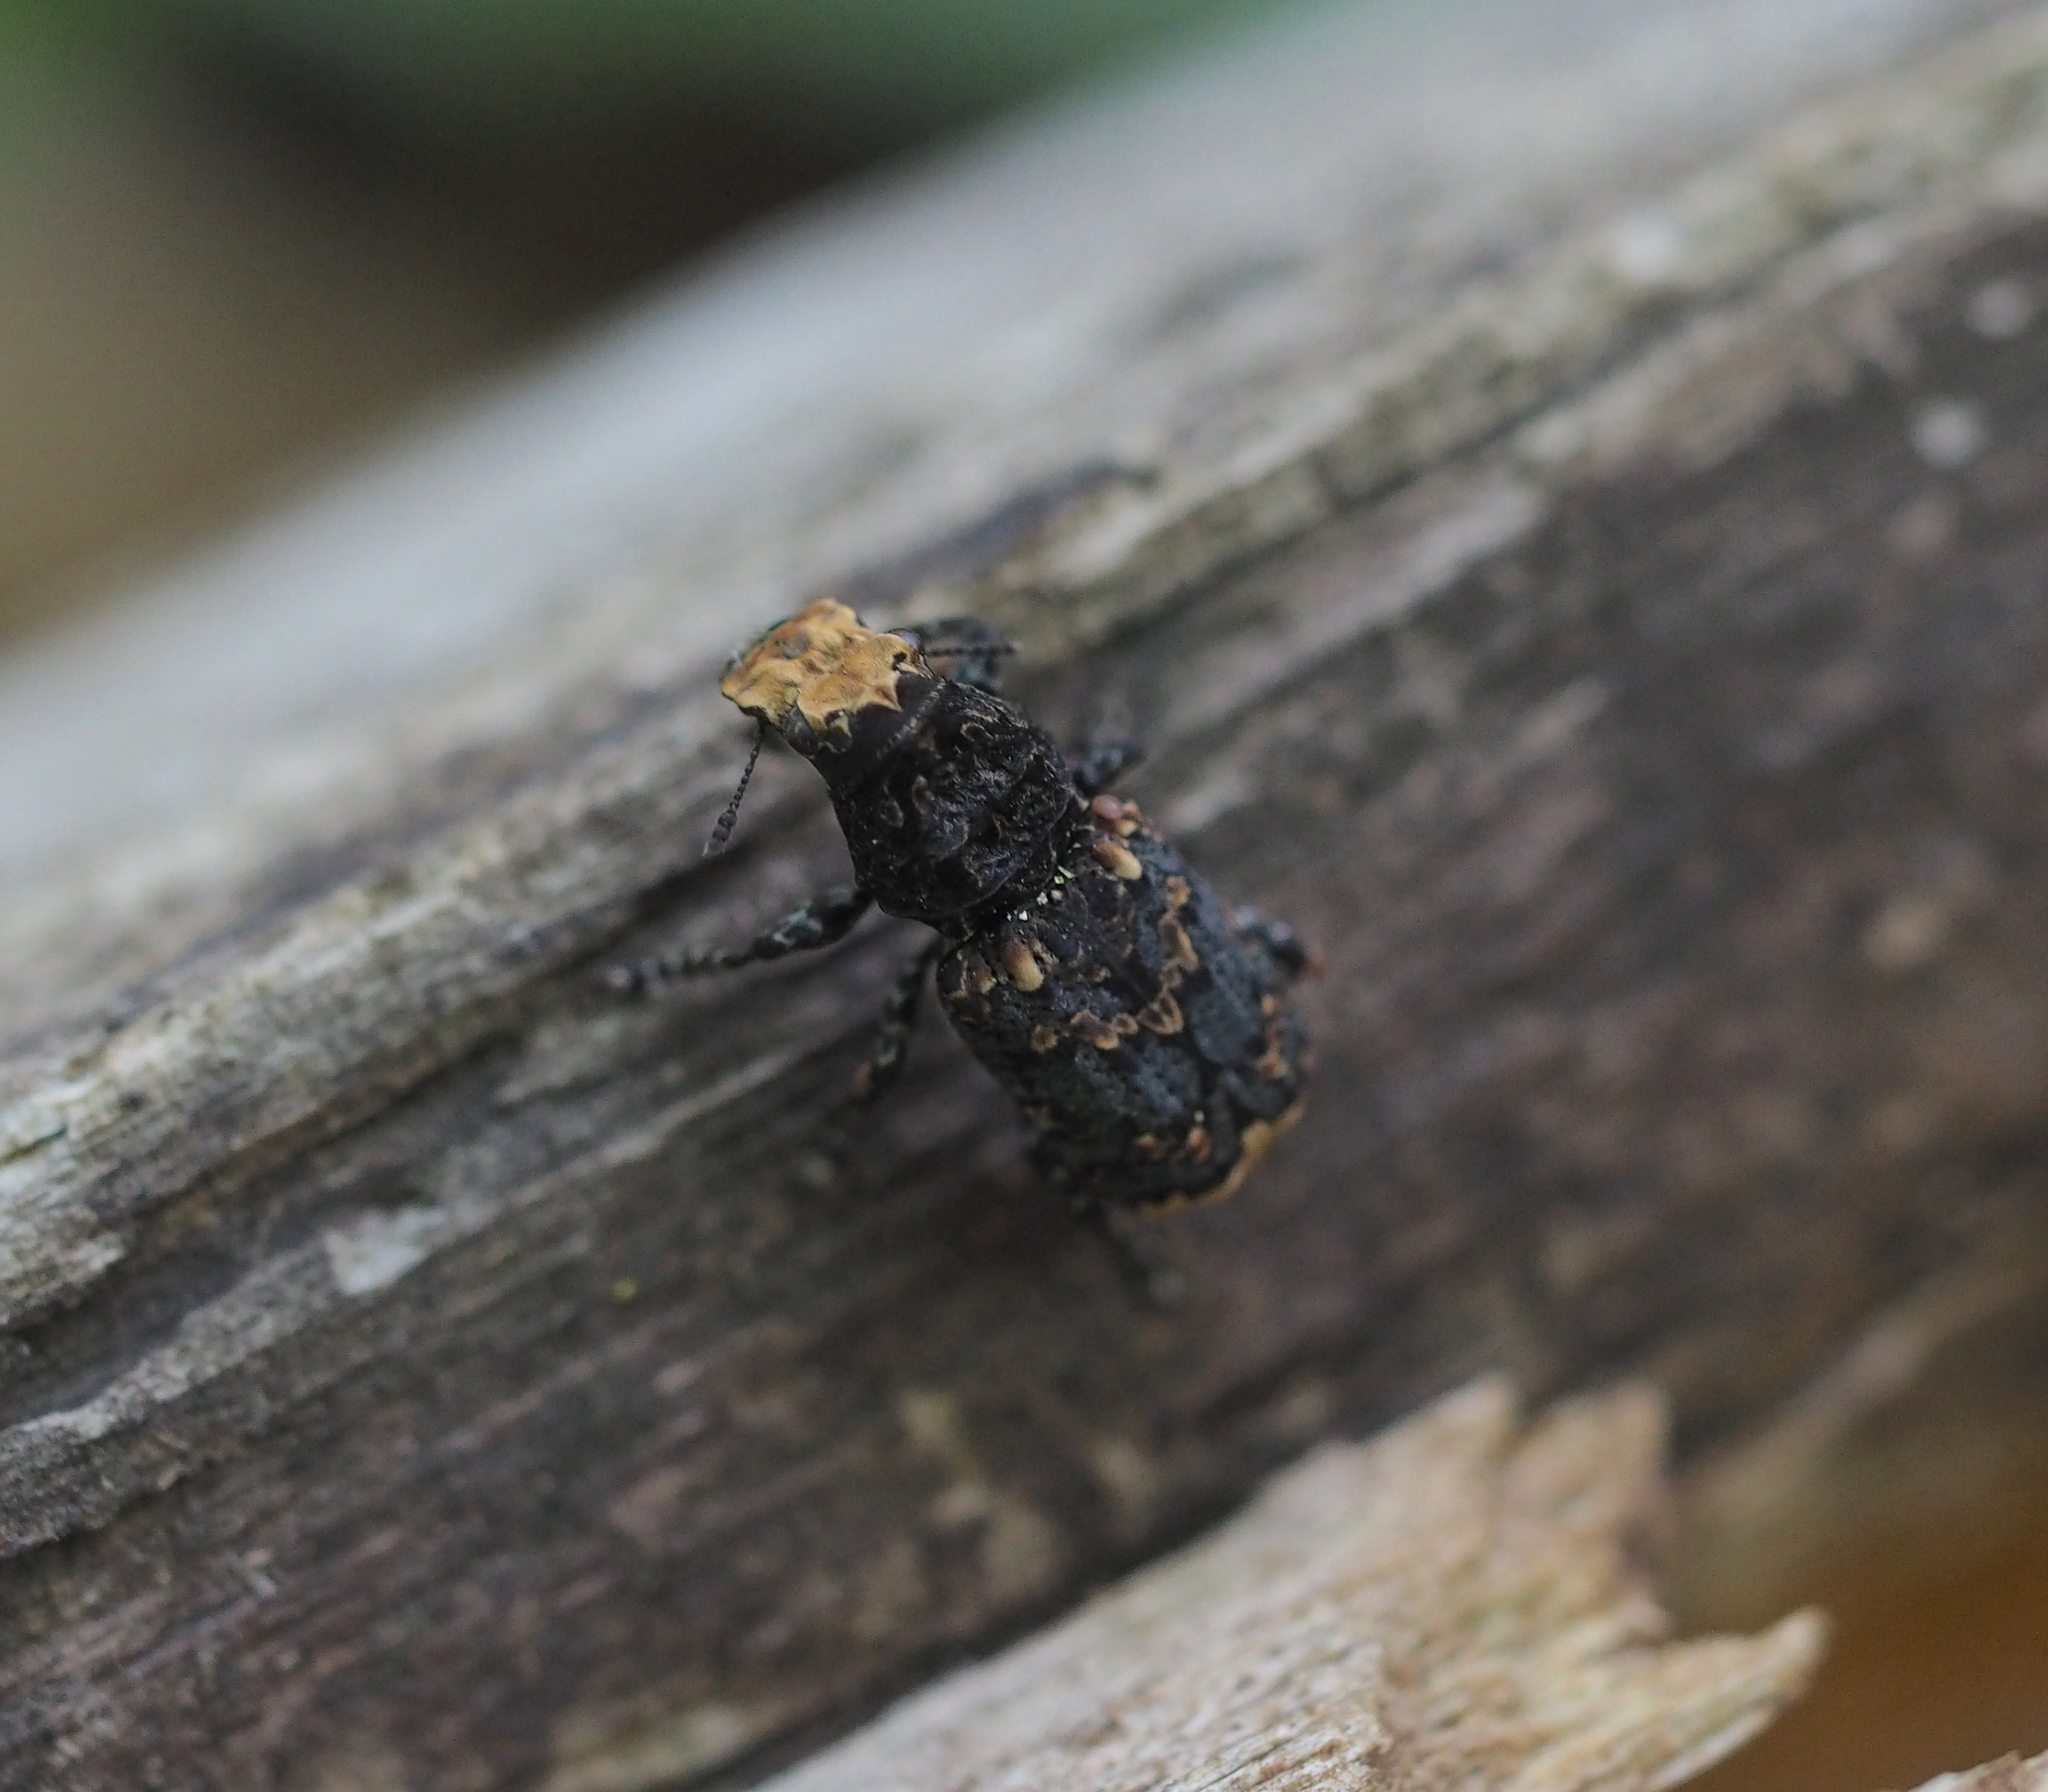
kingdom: Animalia
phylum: Arthropoda
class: Insecta
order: Coleoptera
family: Anthribidae
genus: Platyrhinus
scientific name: Platyrhinus resinosus
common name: Cramp-ball fungus weevil
